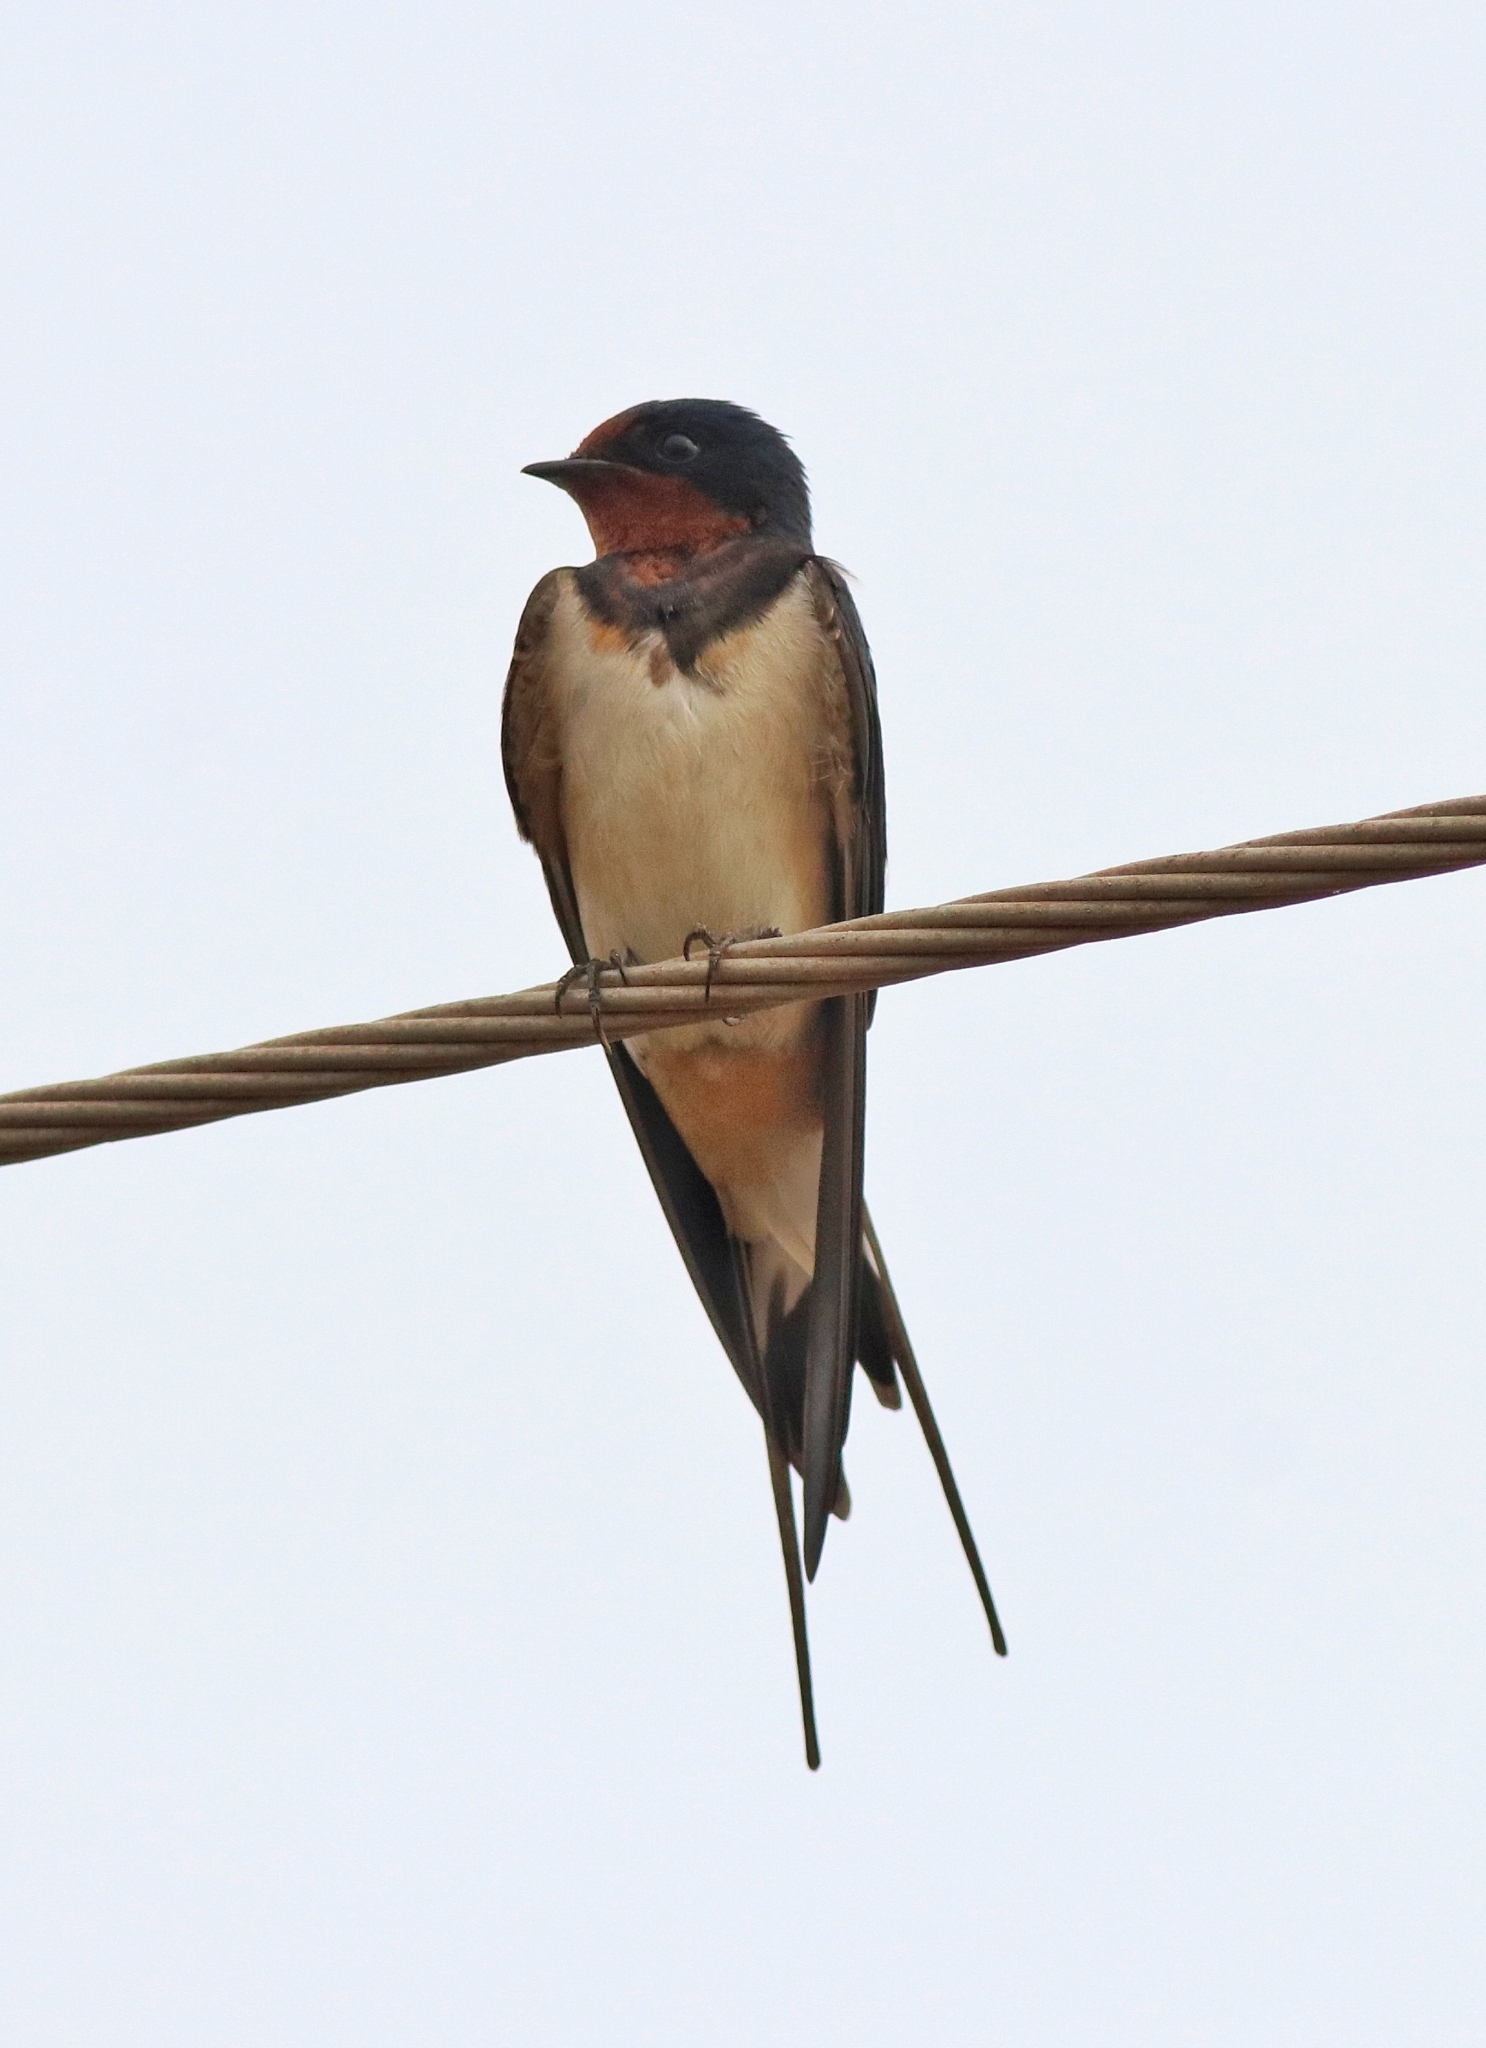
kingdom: Animalia
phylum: Chordata
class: Aves
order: Passeriformes
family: Hirundinidae
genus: Hirundo
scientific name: Hirundo rustica
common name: Barn swallow
